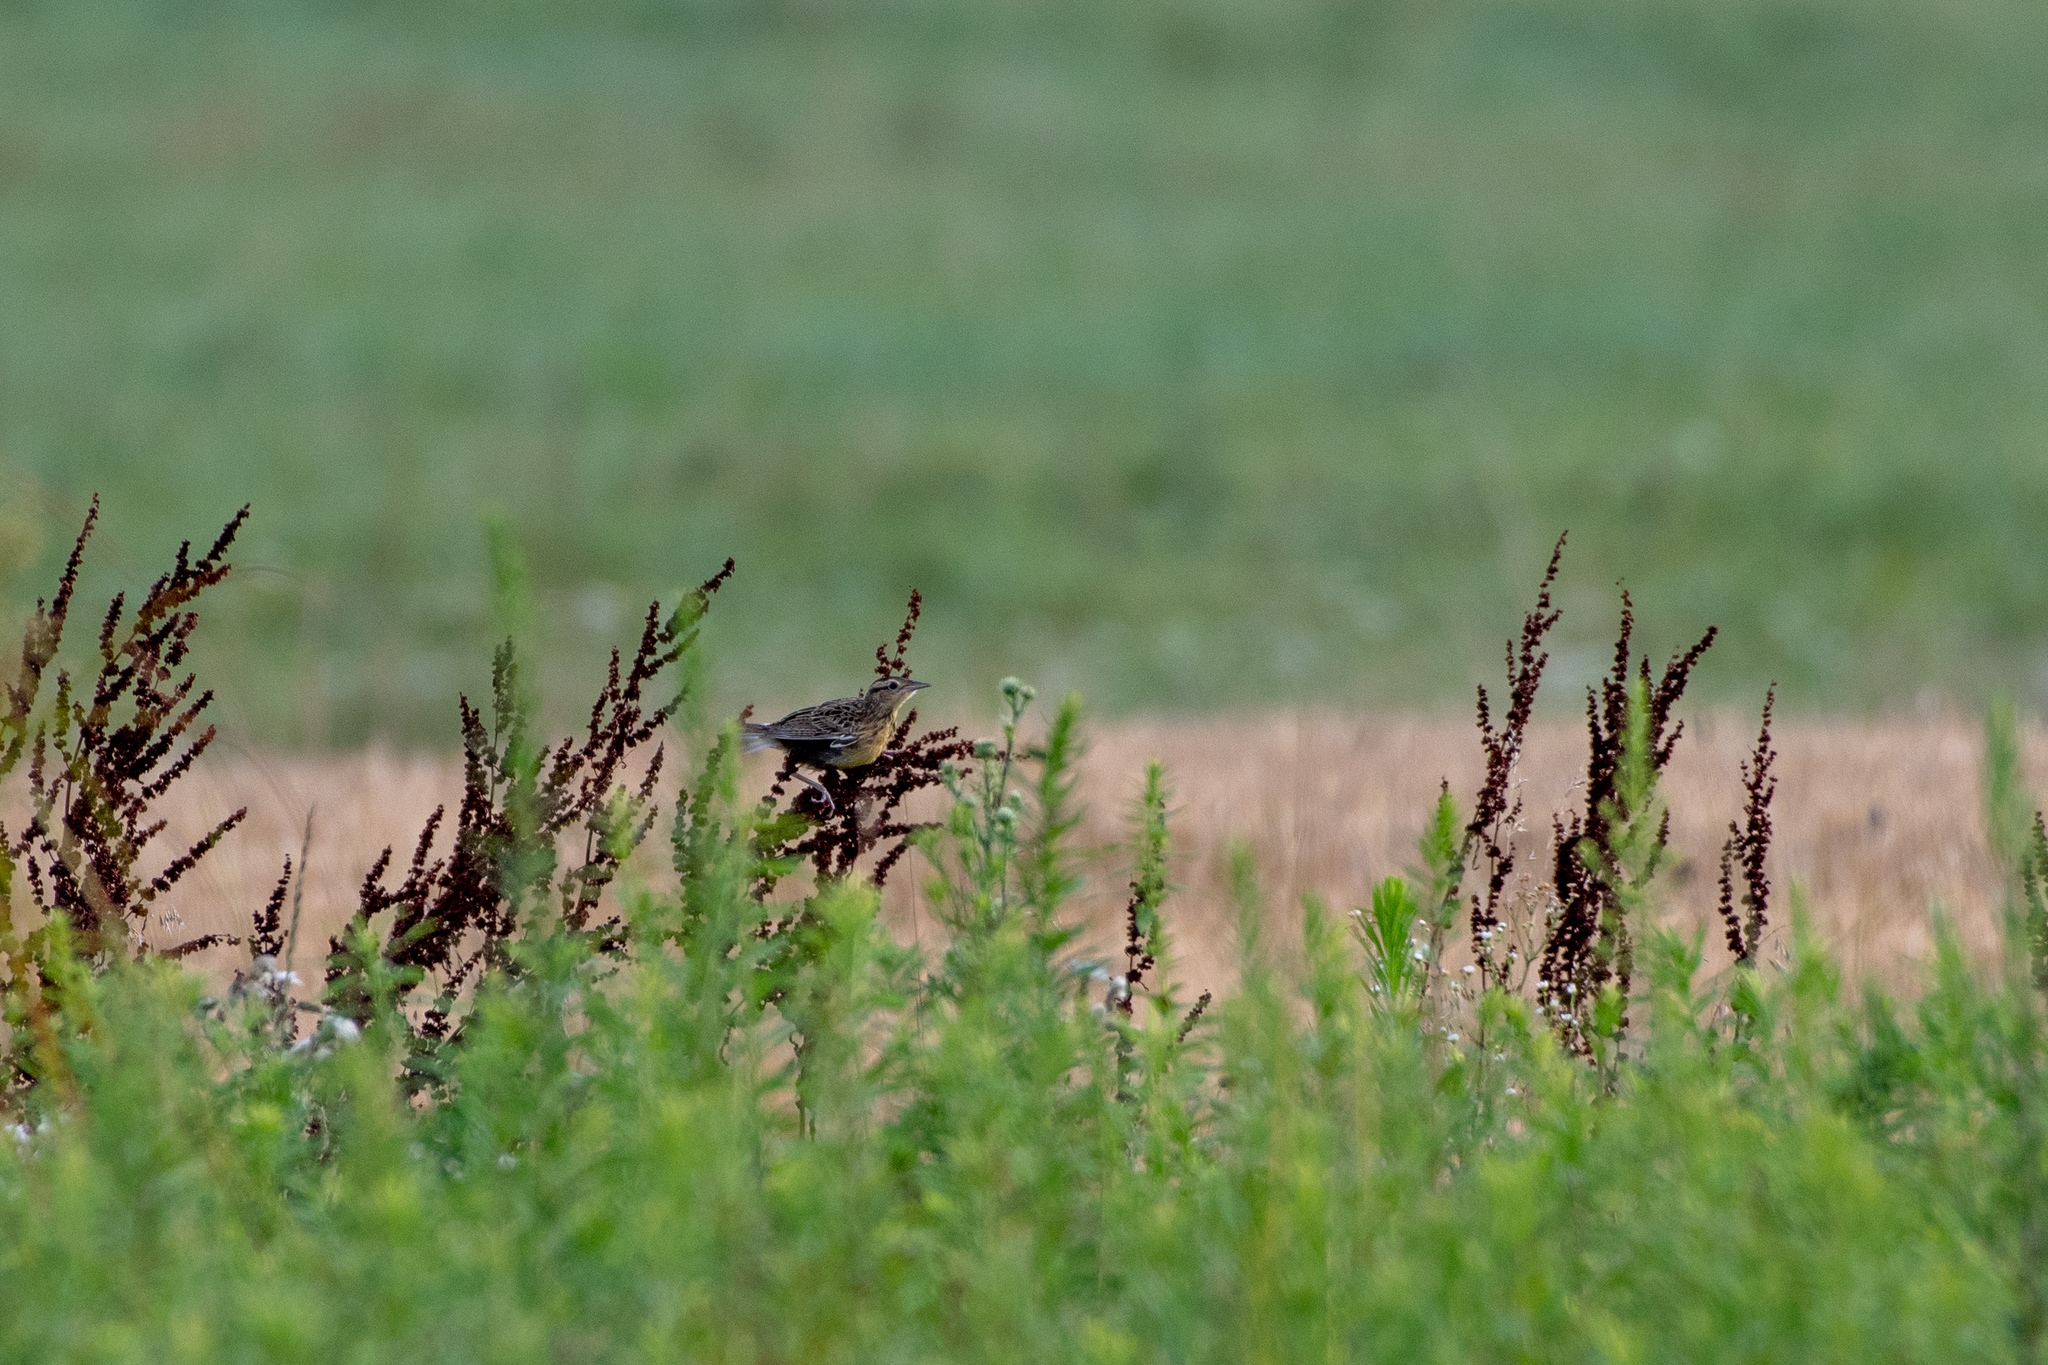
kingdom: Animalia
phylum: Chordata
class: Aves
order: Passeriformes
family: Icteridae
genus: Sturnella
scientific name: Sturnella magna
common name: Eastern meadowlark
